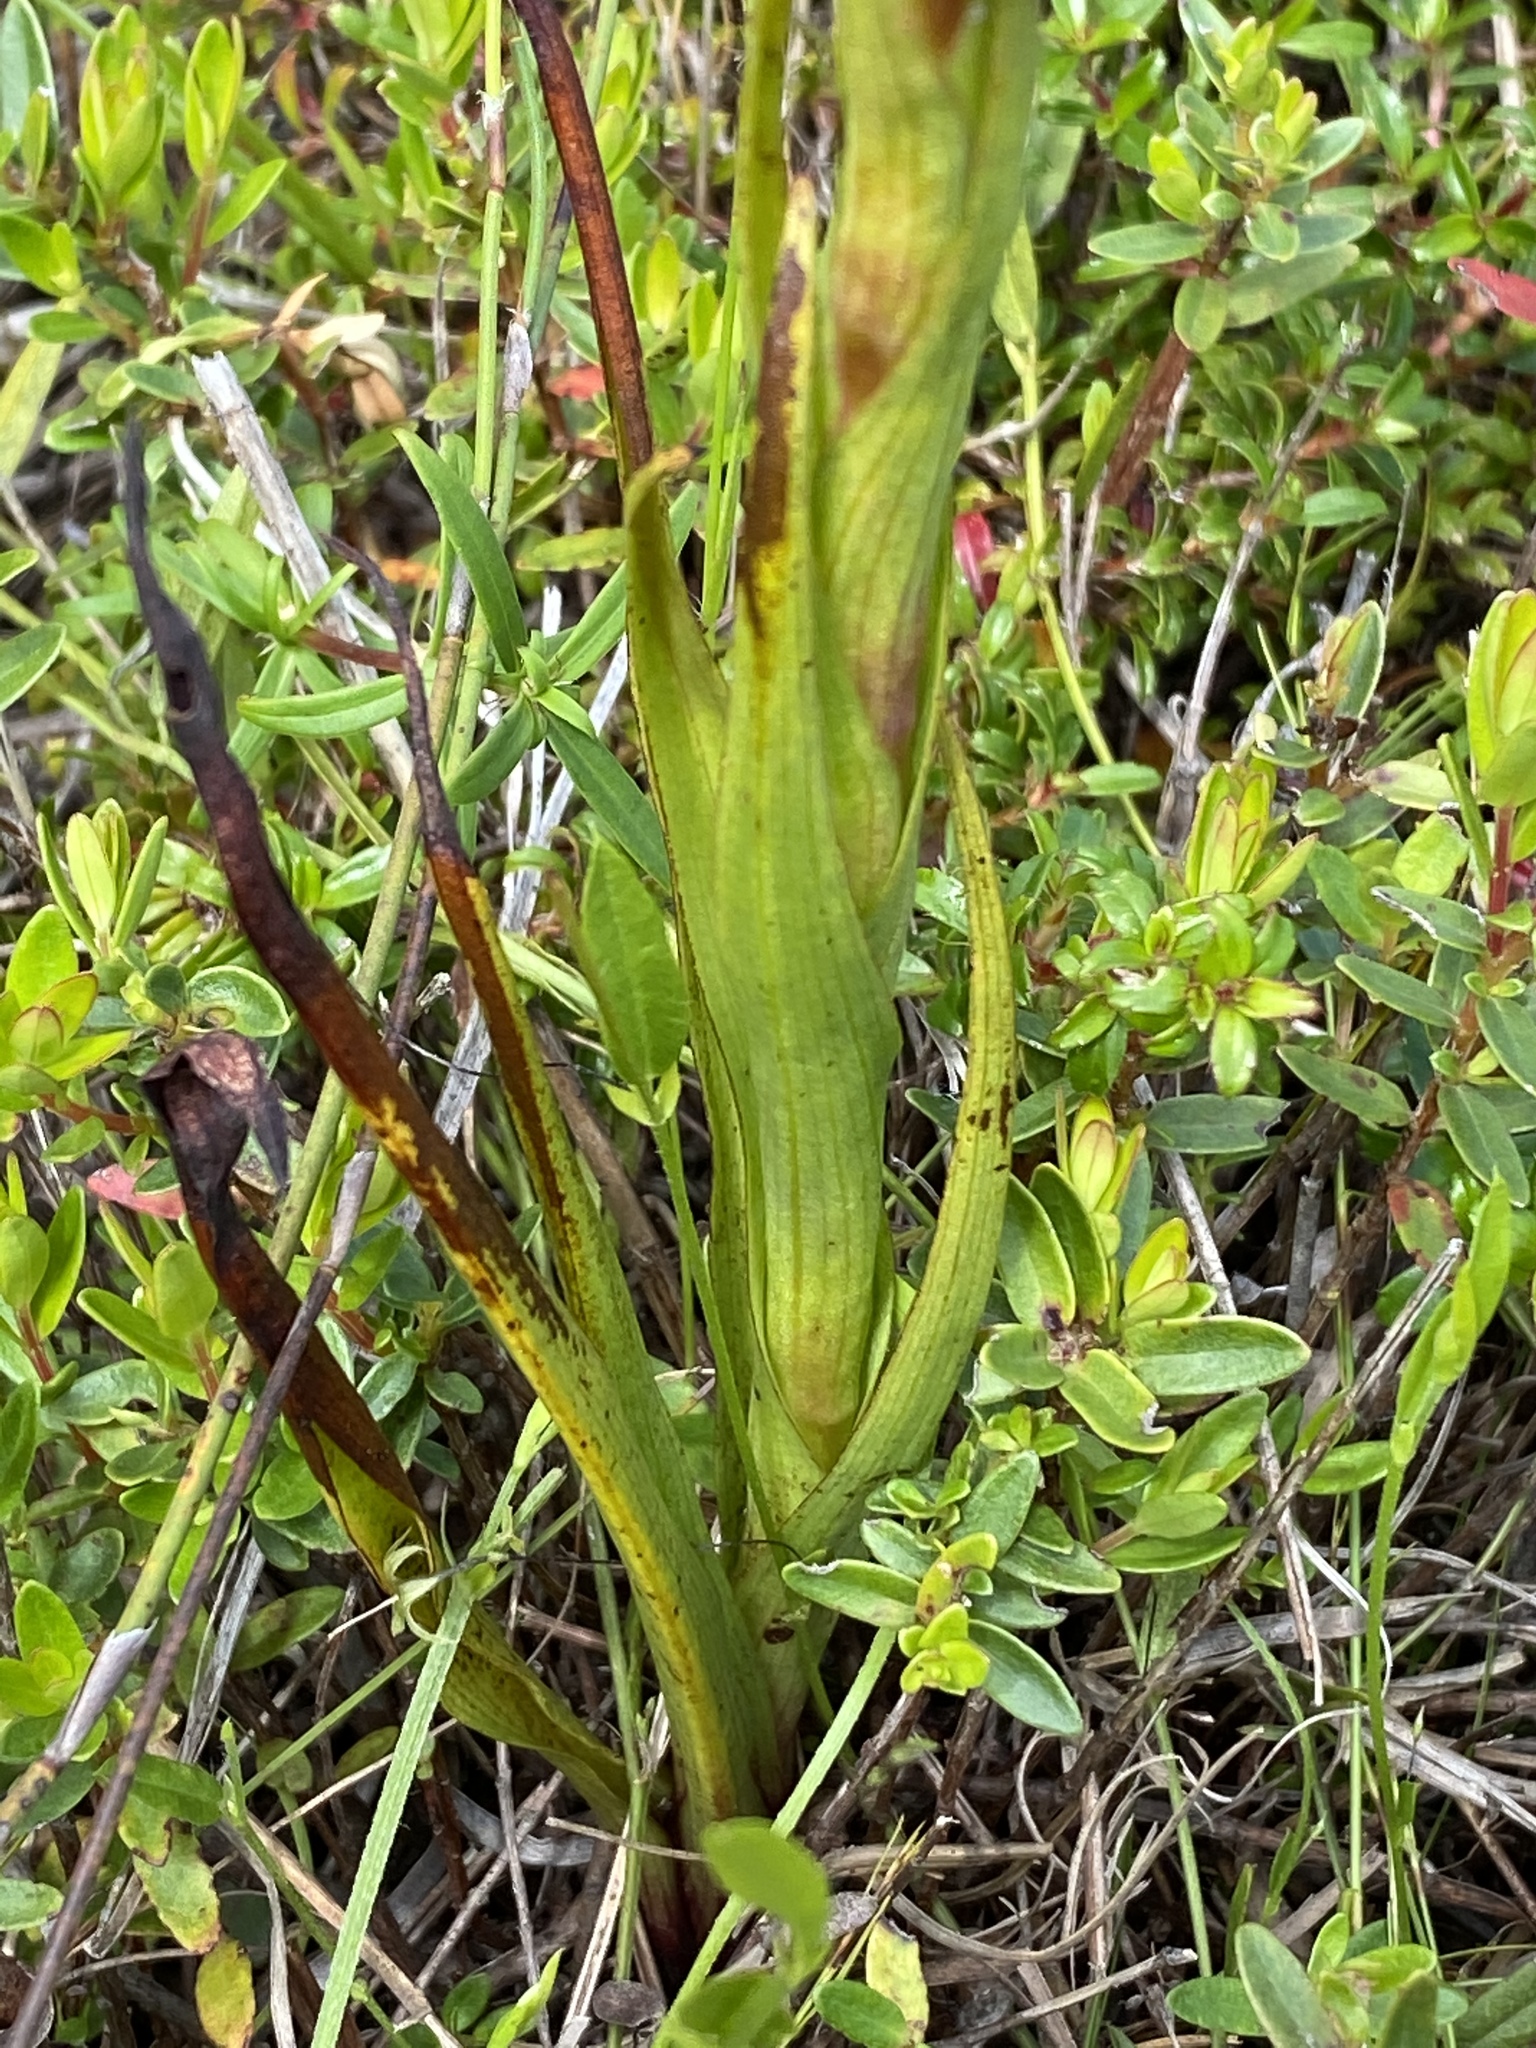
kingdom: Plantae
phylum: Tracheophyta
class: Liliopsida
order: Asparagales
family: Orchidaceae
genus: Disa
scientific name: Disa densiflora
